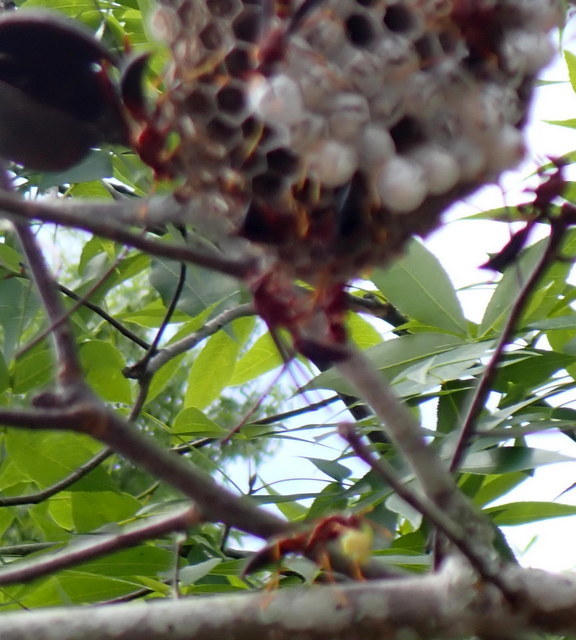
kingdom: Animalia
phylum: Arthropoda
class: Insecta
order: Hymenoptera
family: Eumenidae
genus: Polistes
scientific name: Polistes annularis
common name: Ringed paper wasp
